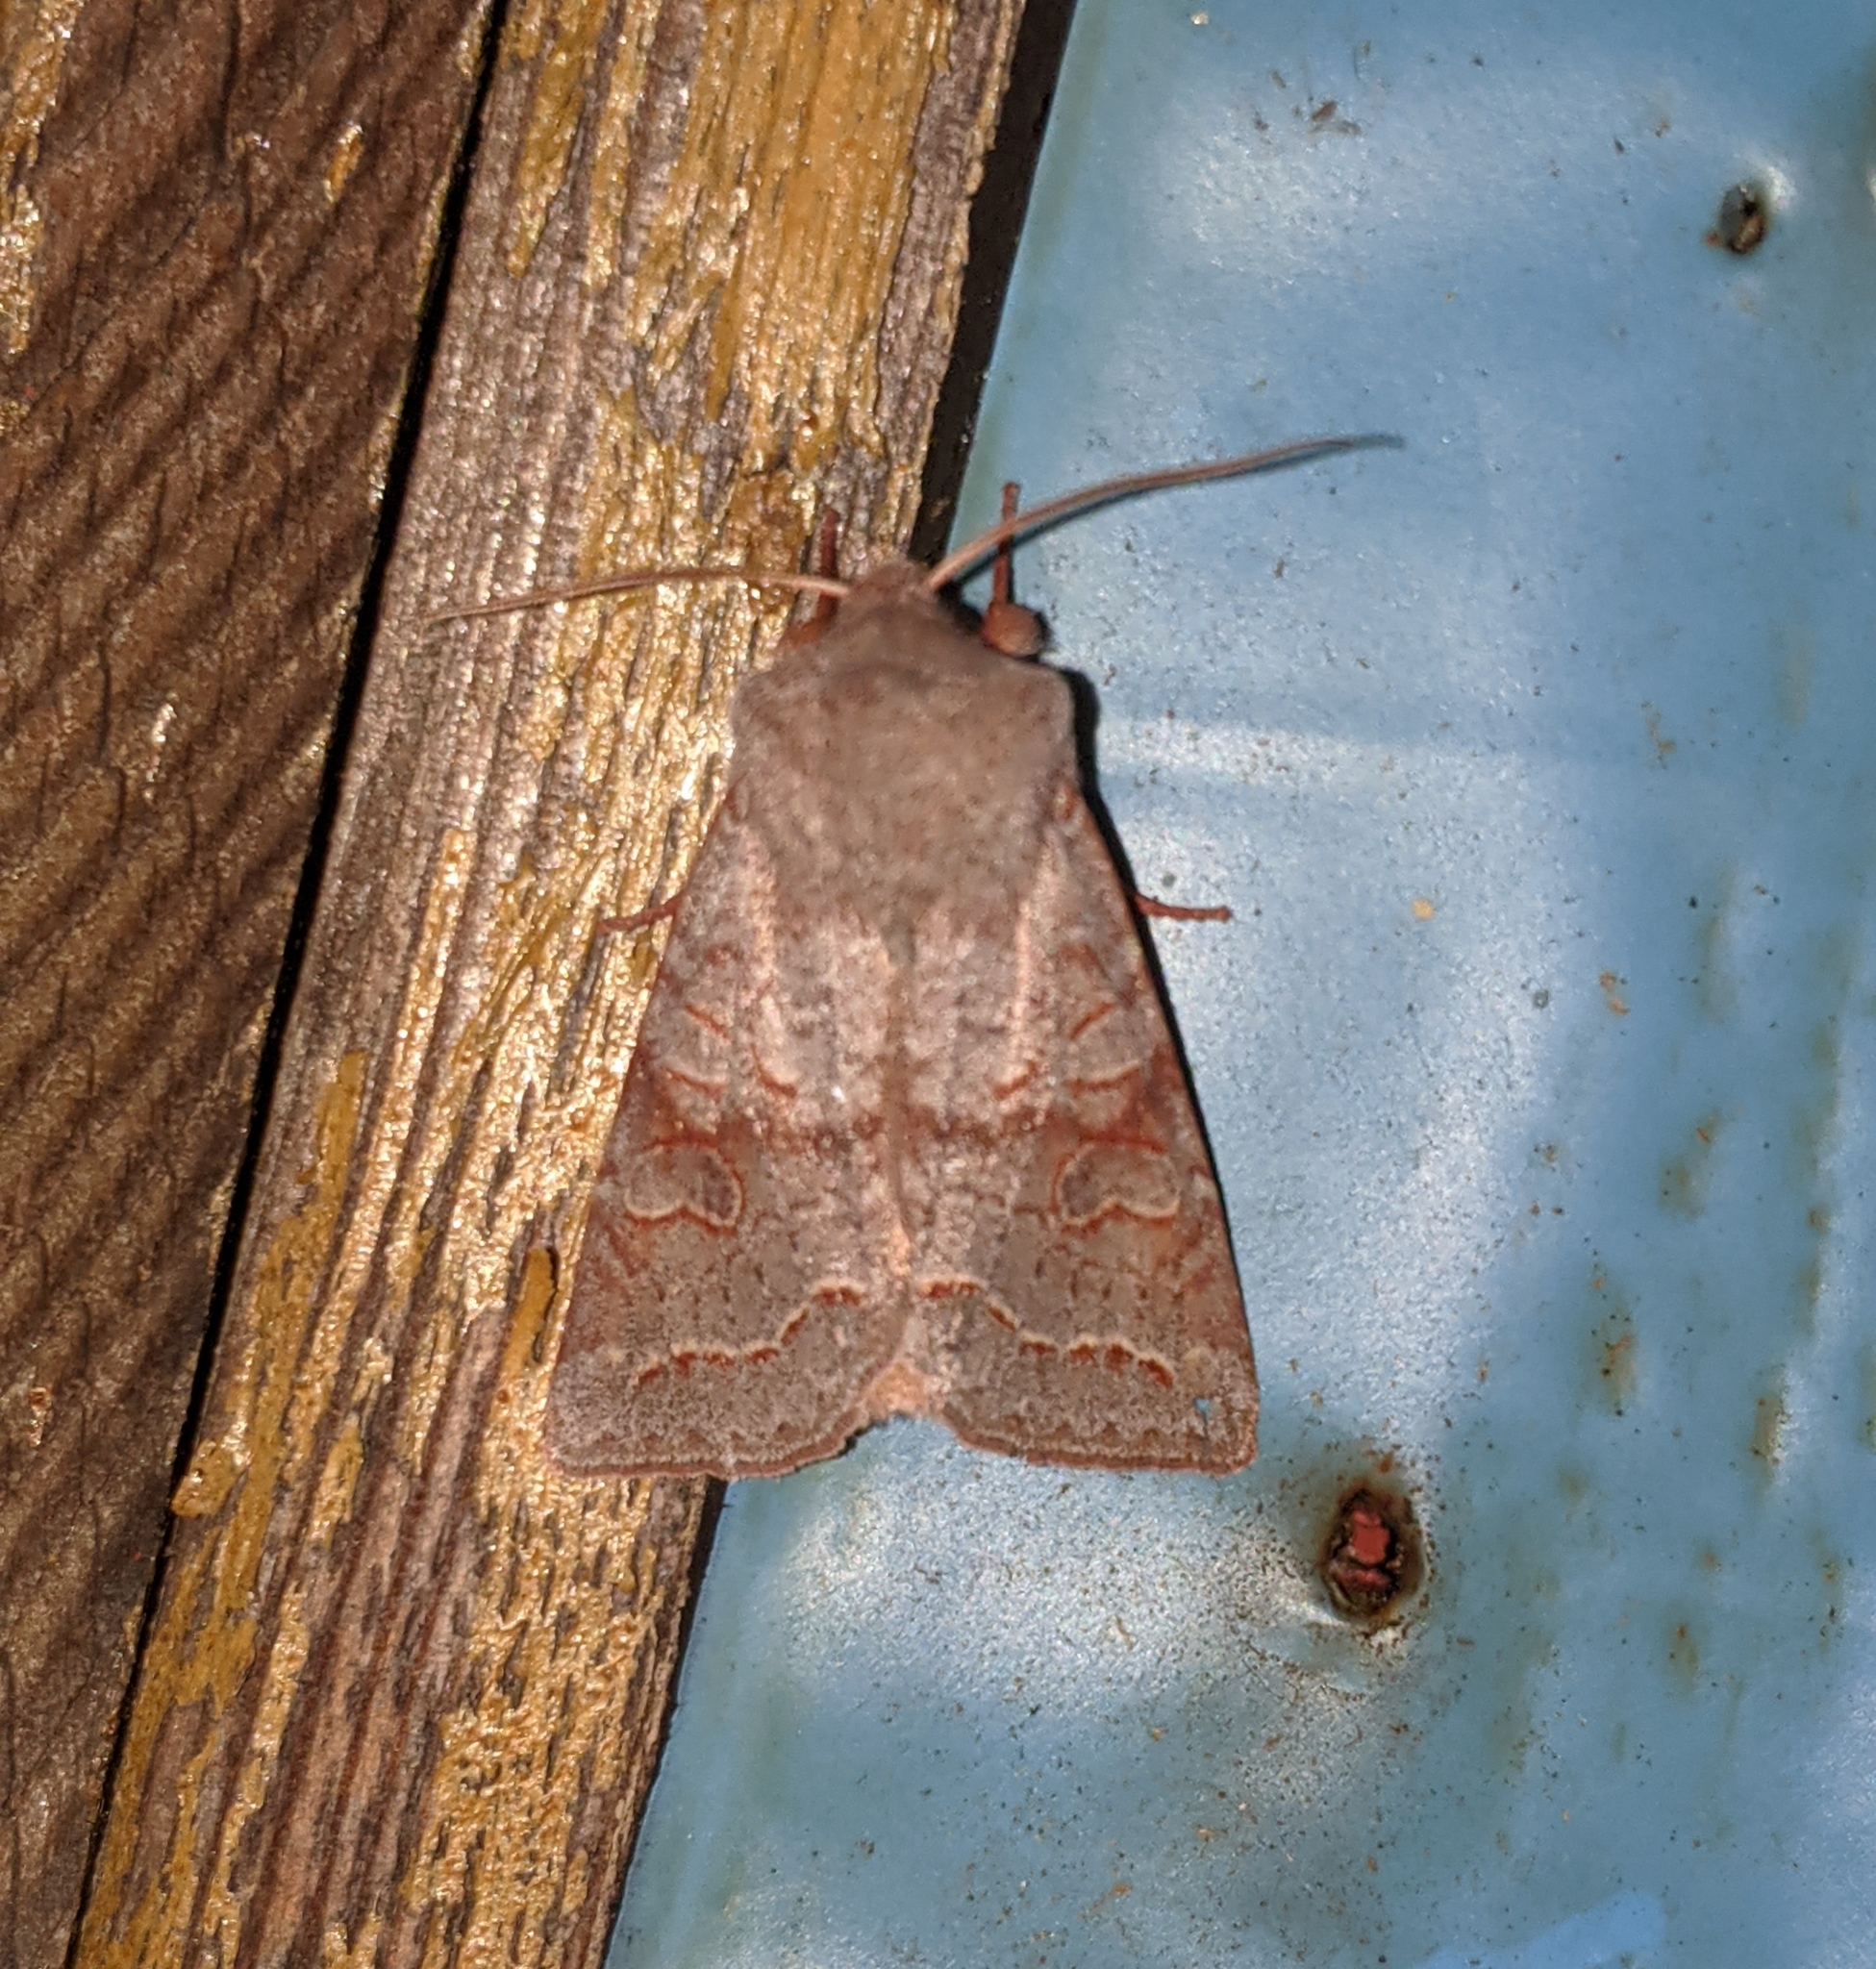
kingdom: Animalia
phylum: Arthropoda
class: Insecta
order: Lepidoptera
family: Noctuidae
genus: Orthosia
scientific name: Orthosia revicta
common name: Rusty whitesided caterpillar
